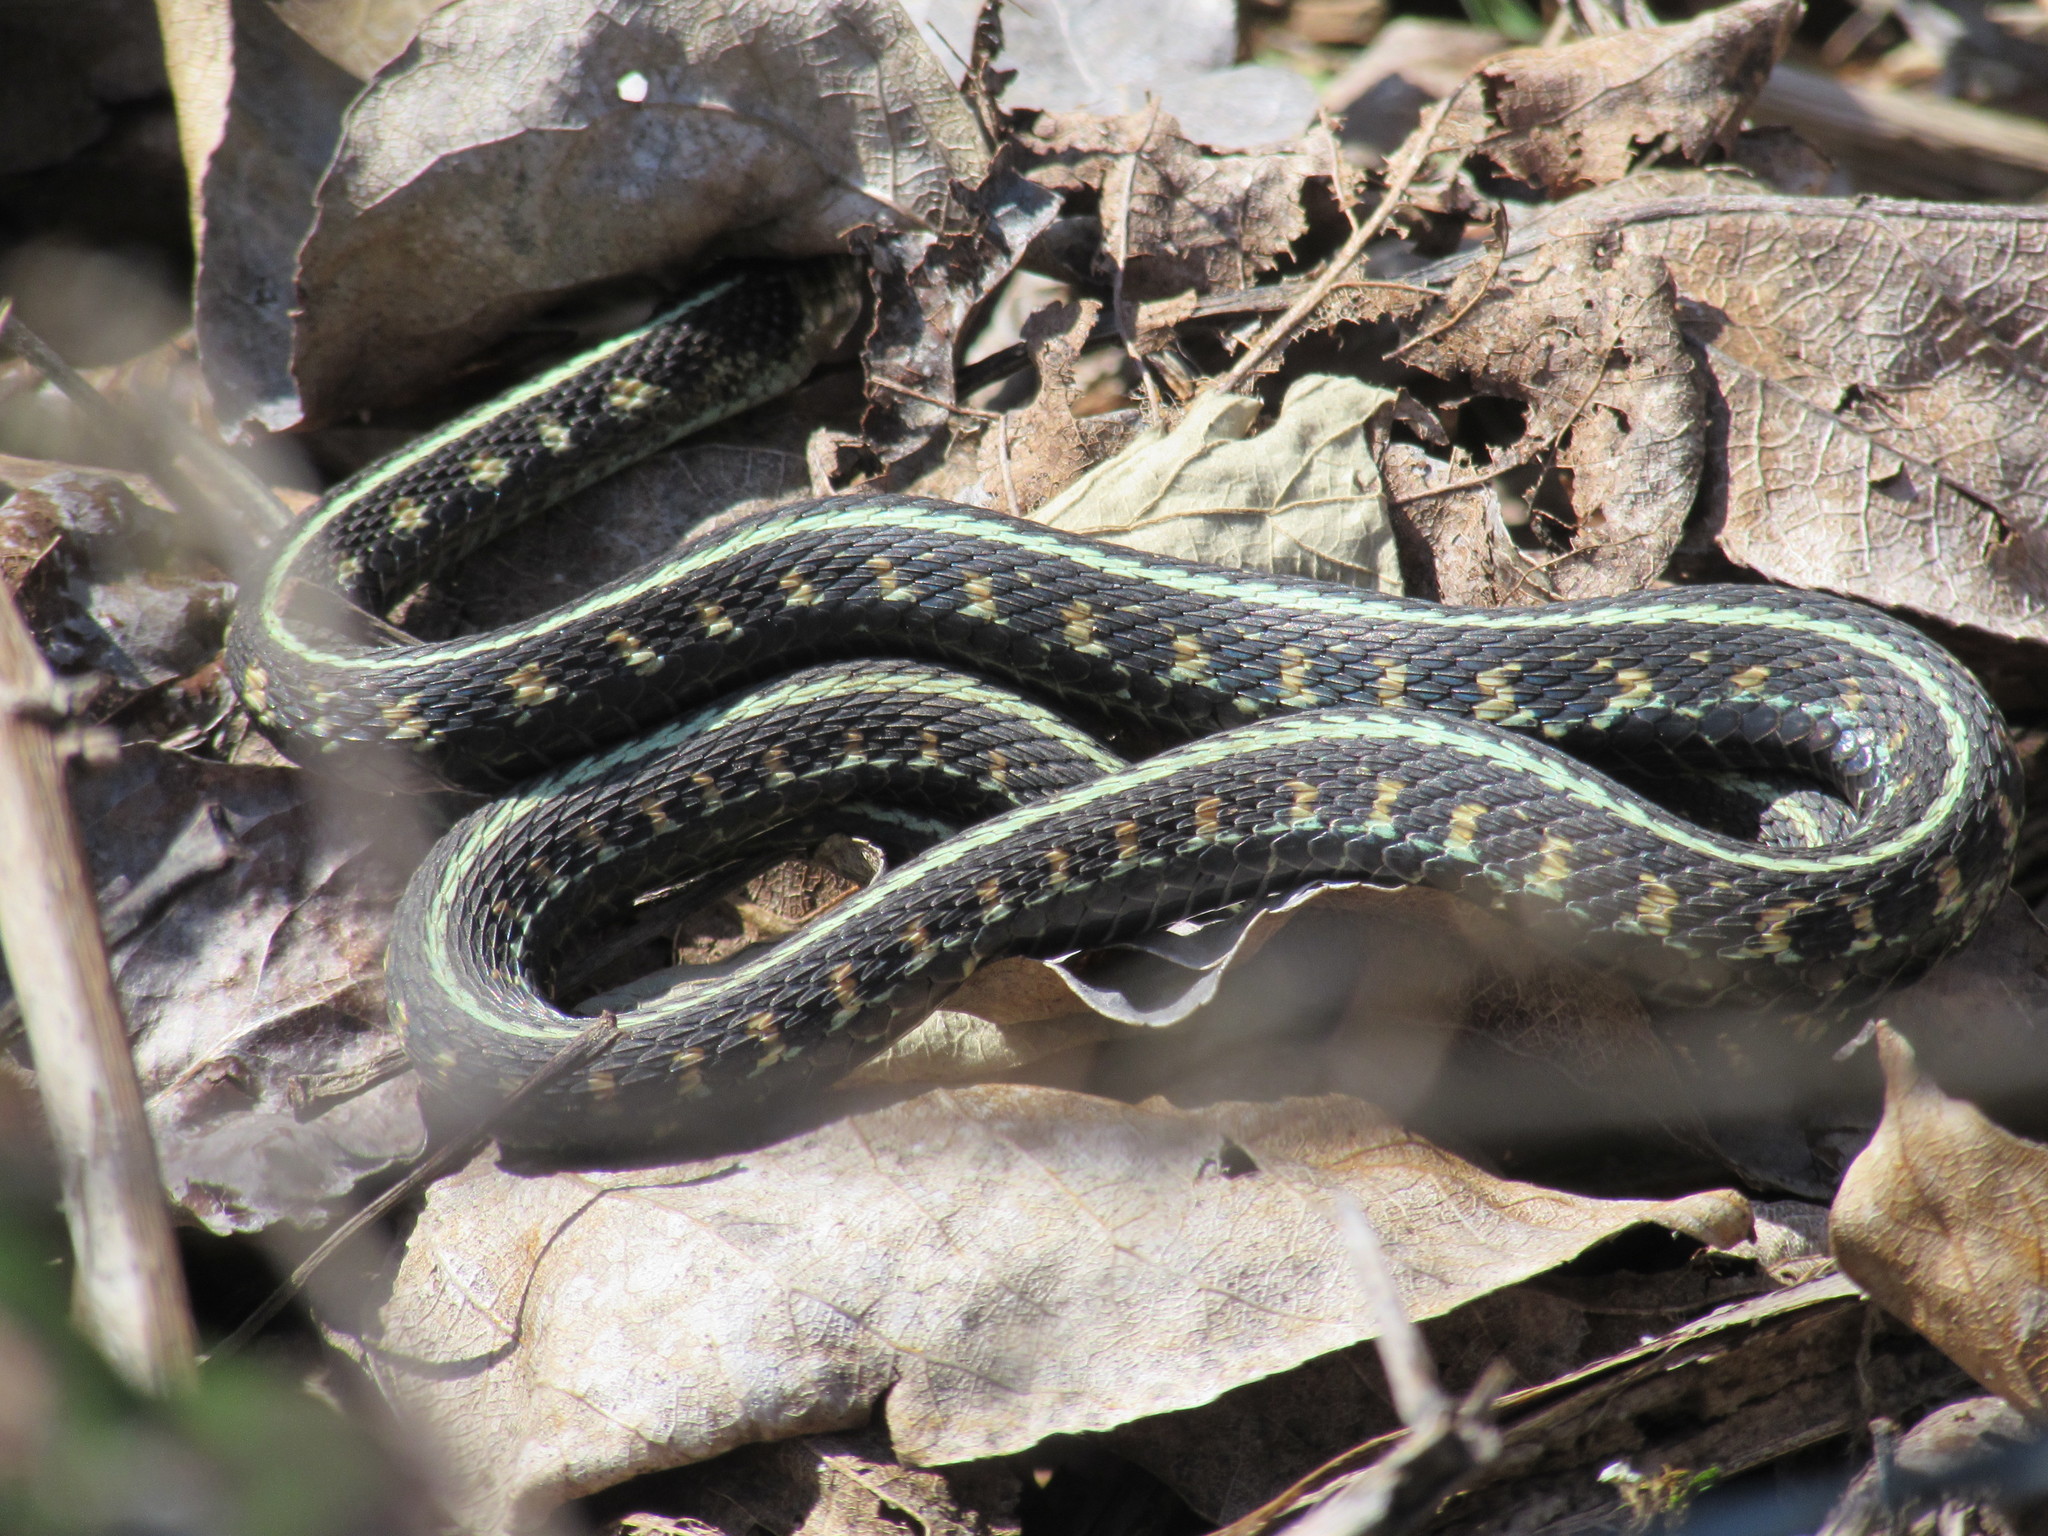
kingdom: Animalia
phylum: Chordata
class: Squamata
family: Colubridae
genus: Thamnophis
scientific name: Thamnophis sirtalis
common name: Common garter snake
